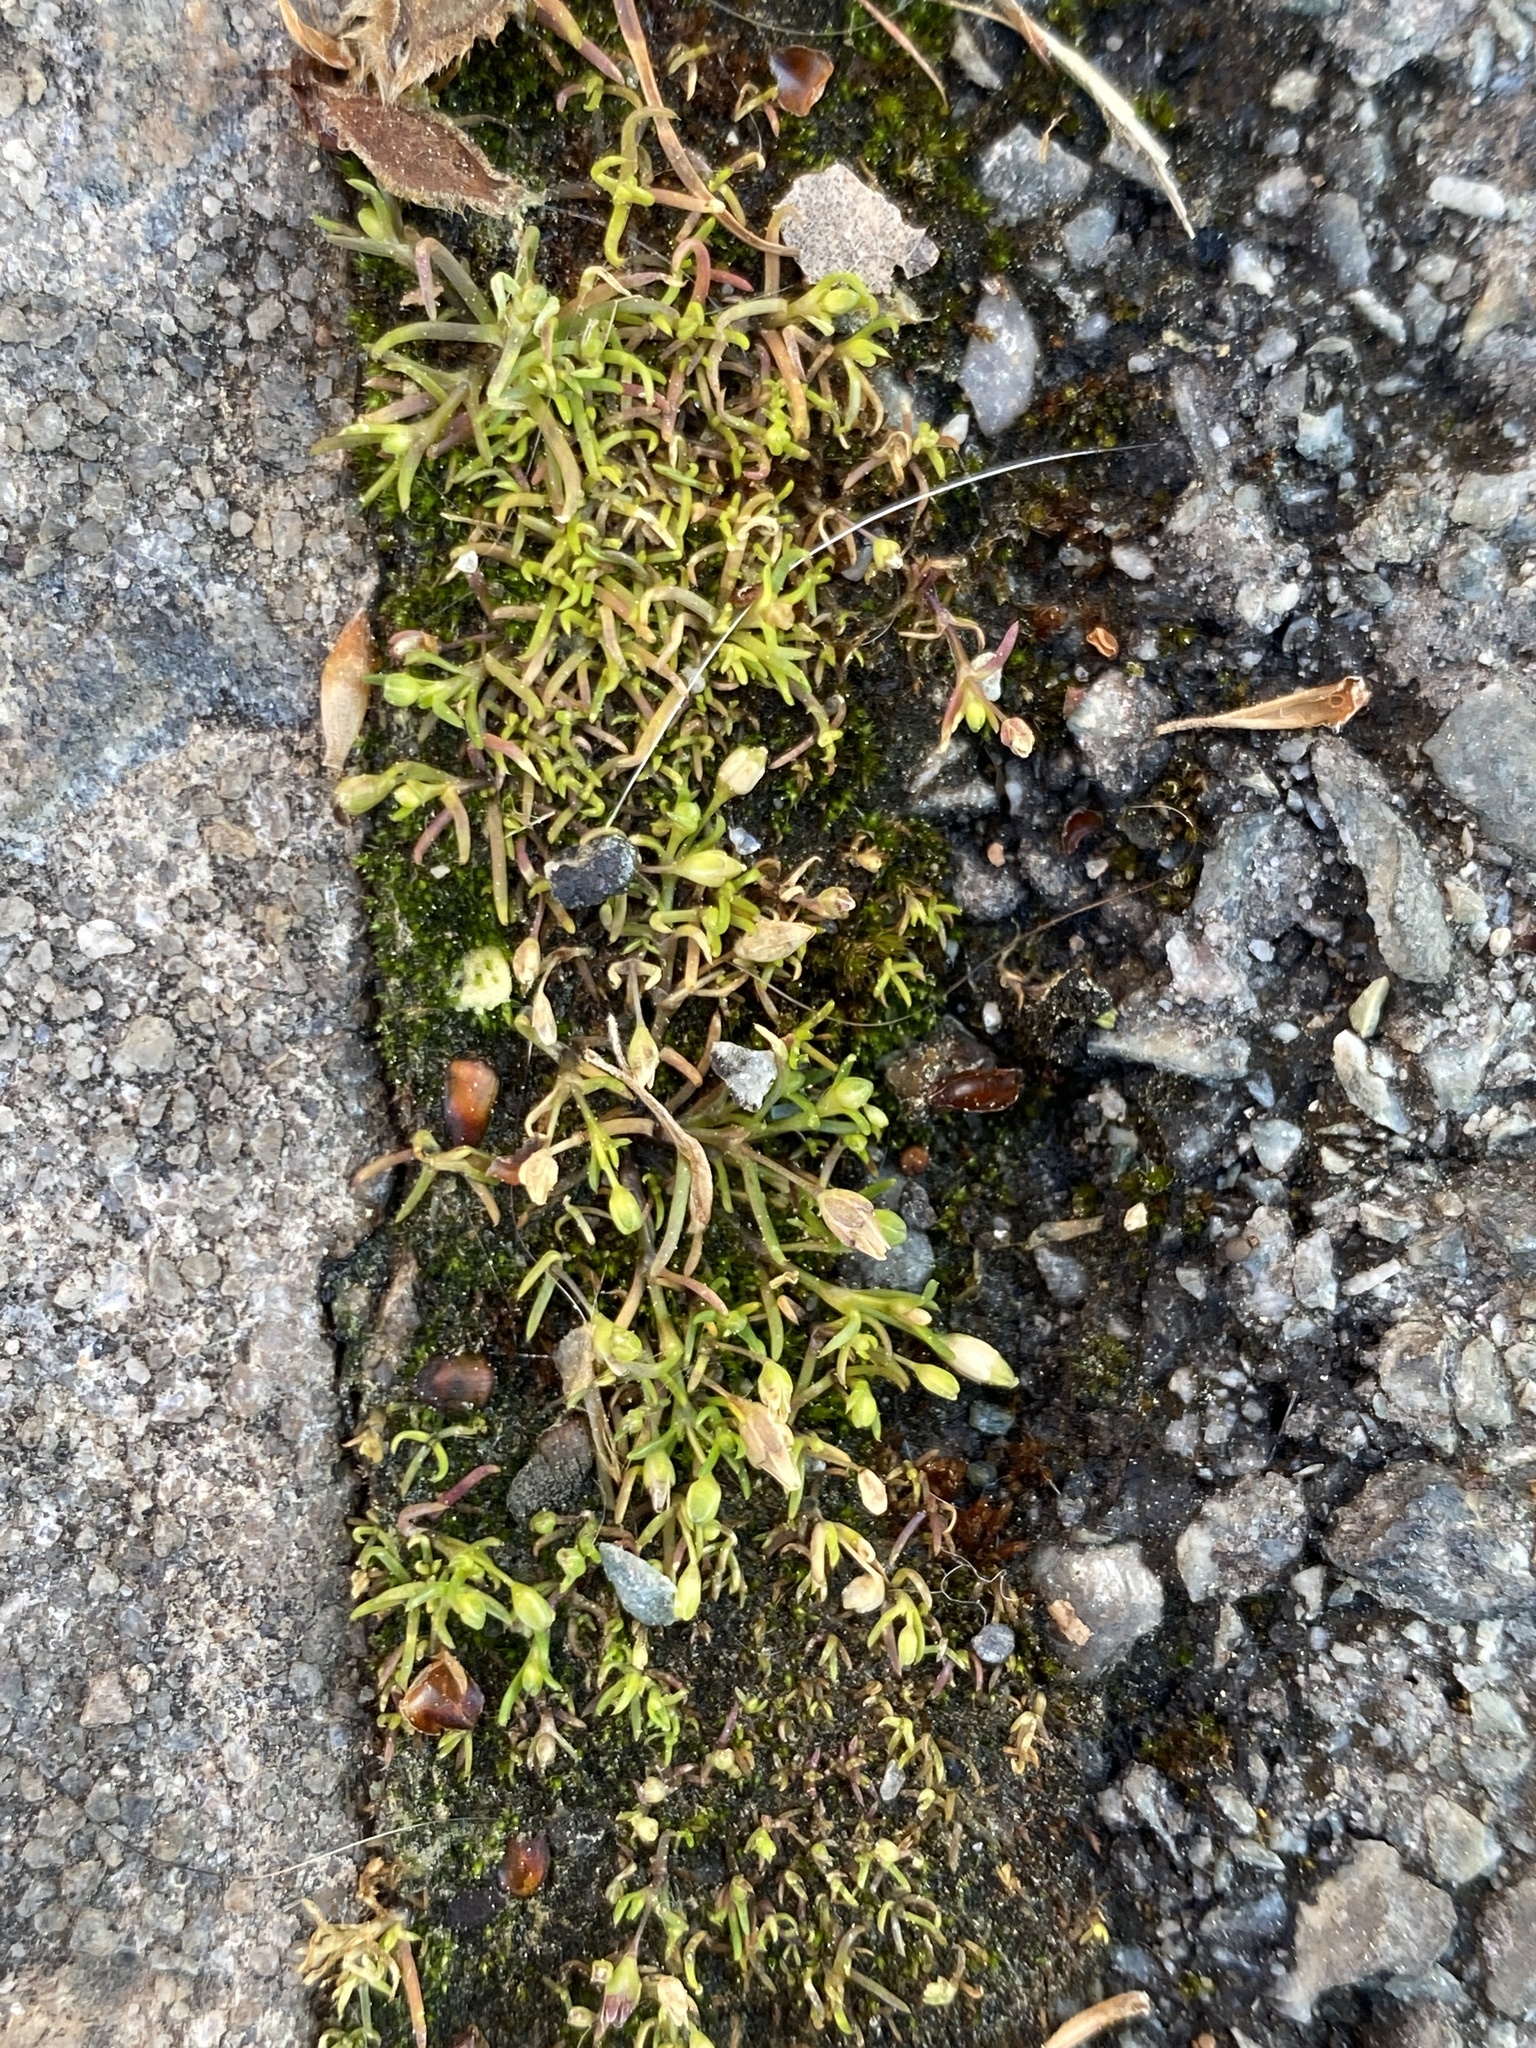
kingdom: Plantae
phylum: Tracheophyta
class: Magnoliopsida
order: Caryophyllales
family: Caryophyllaceae
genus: Sagina
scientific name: Sagina decumbens
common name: Decumbent pearlwort
